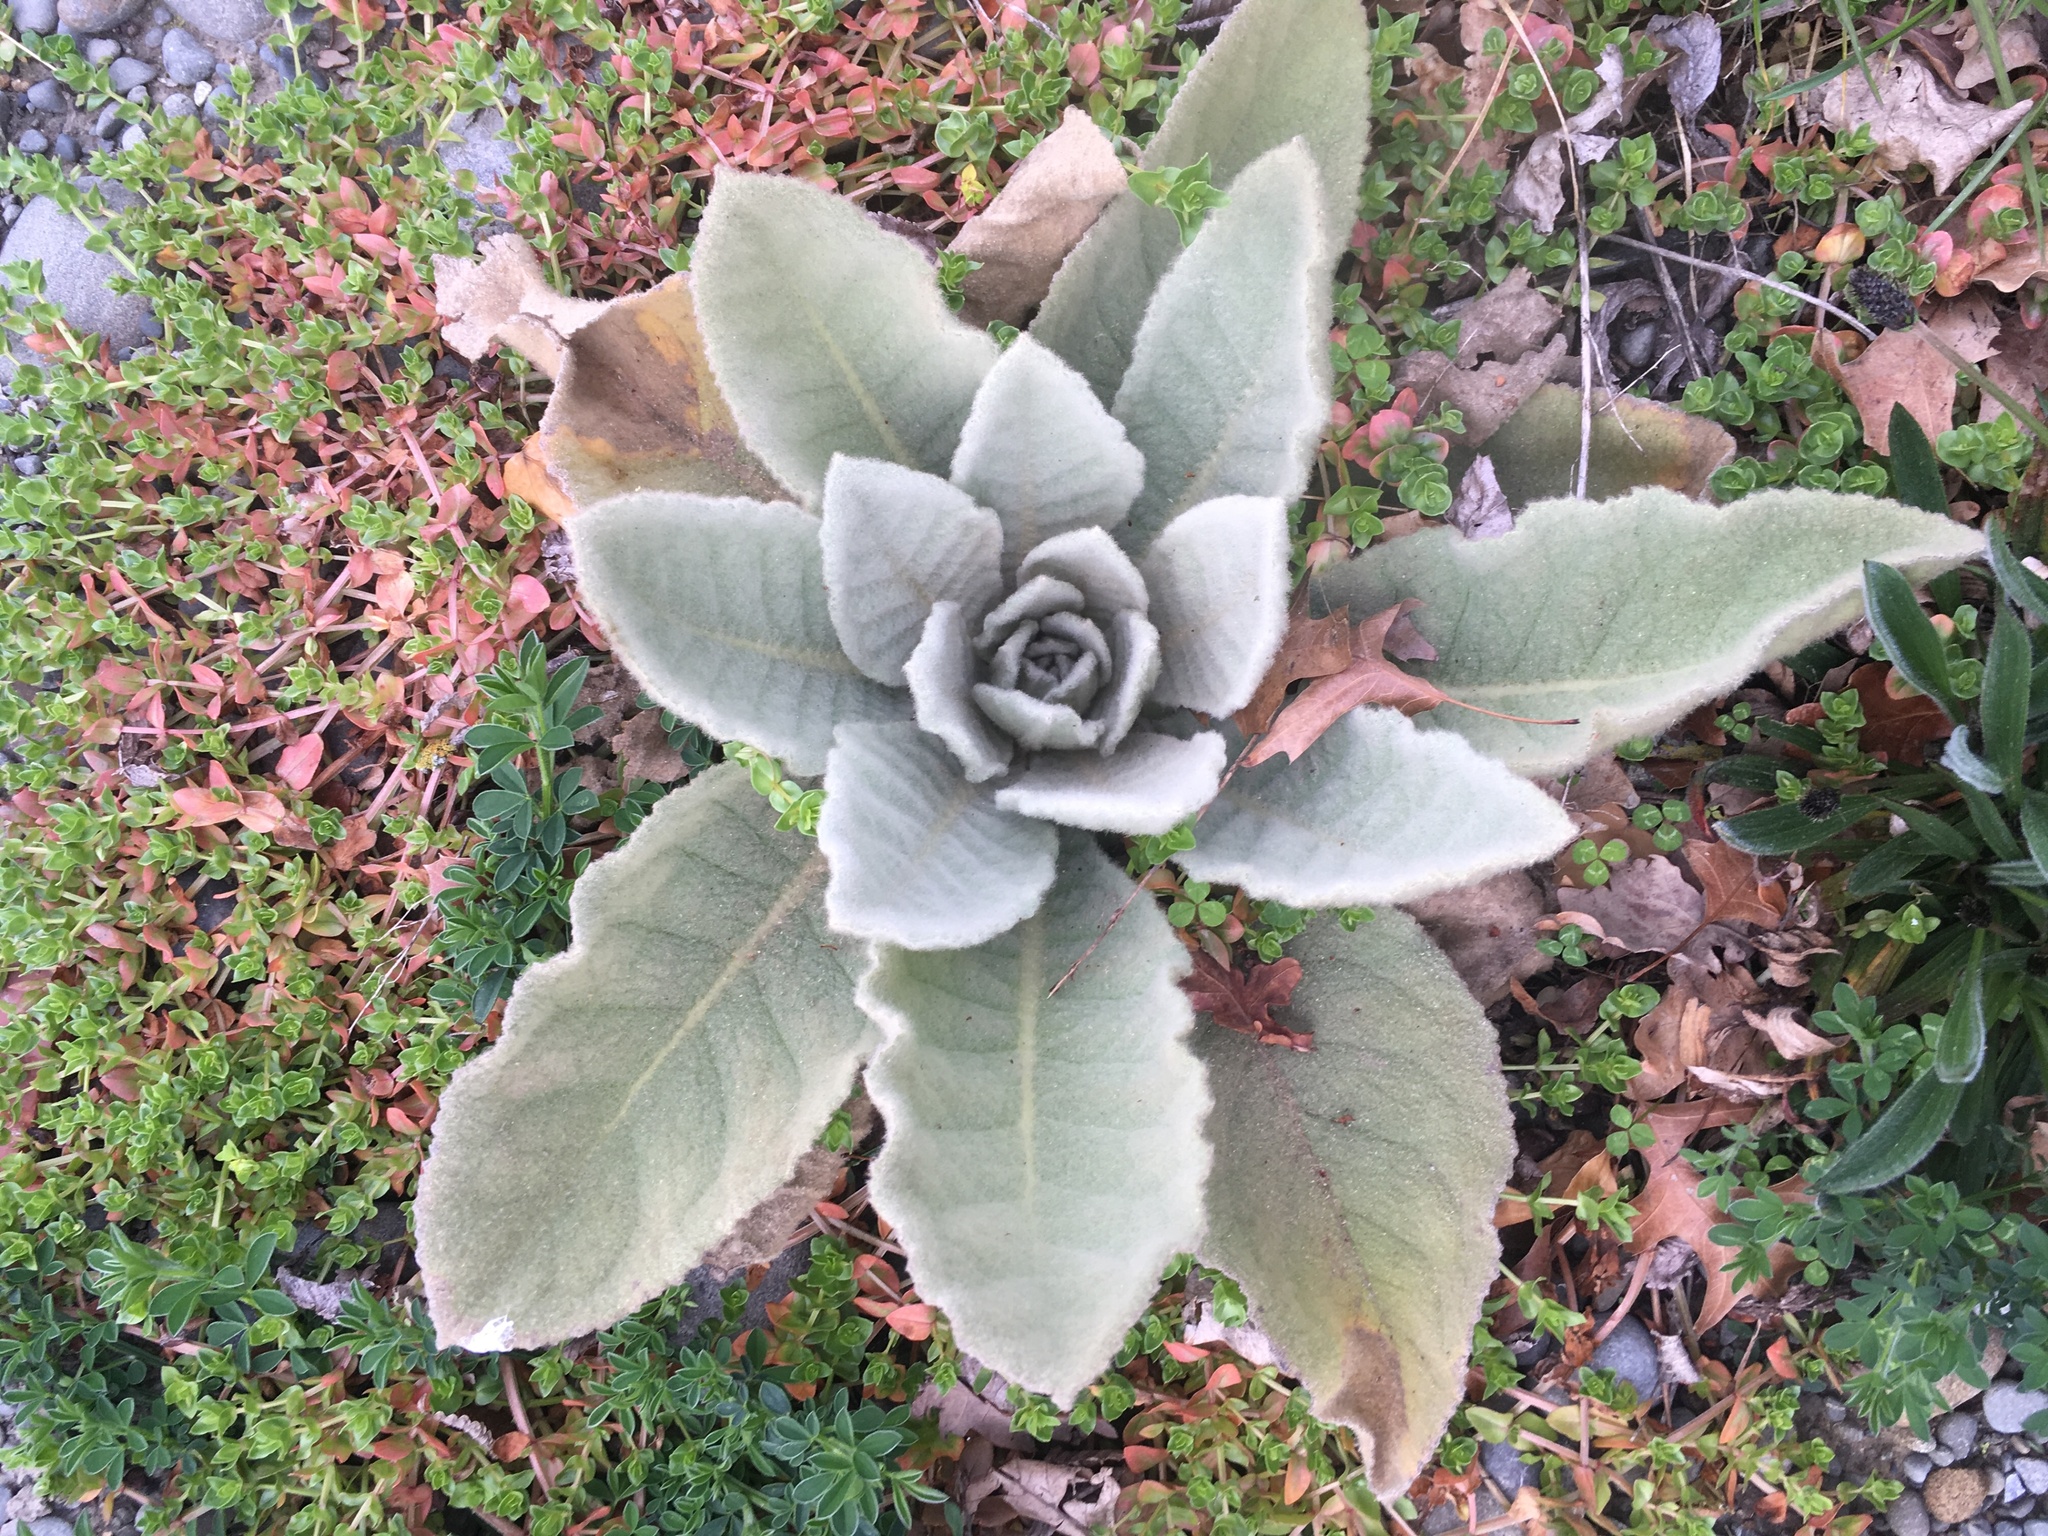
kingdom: Plantae
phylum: Tracheophyta
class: Magnoliopsida
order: Lamiales
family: Scrophulariaceae
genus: Verbascum
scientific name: Verbascum thapsus
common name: Common mullein
